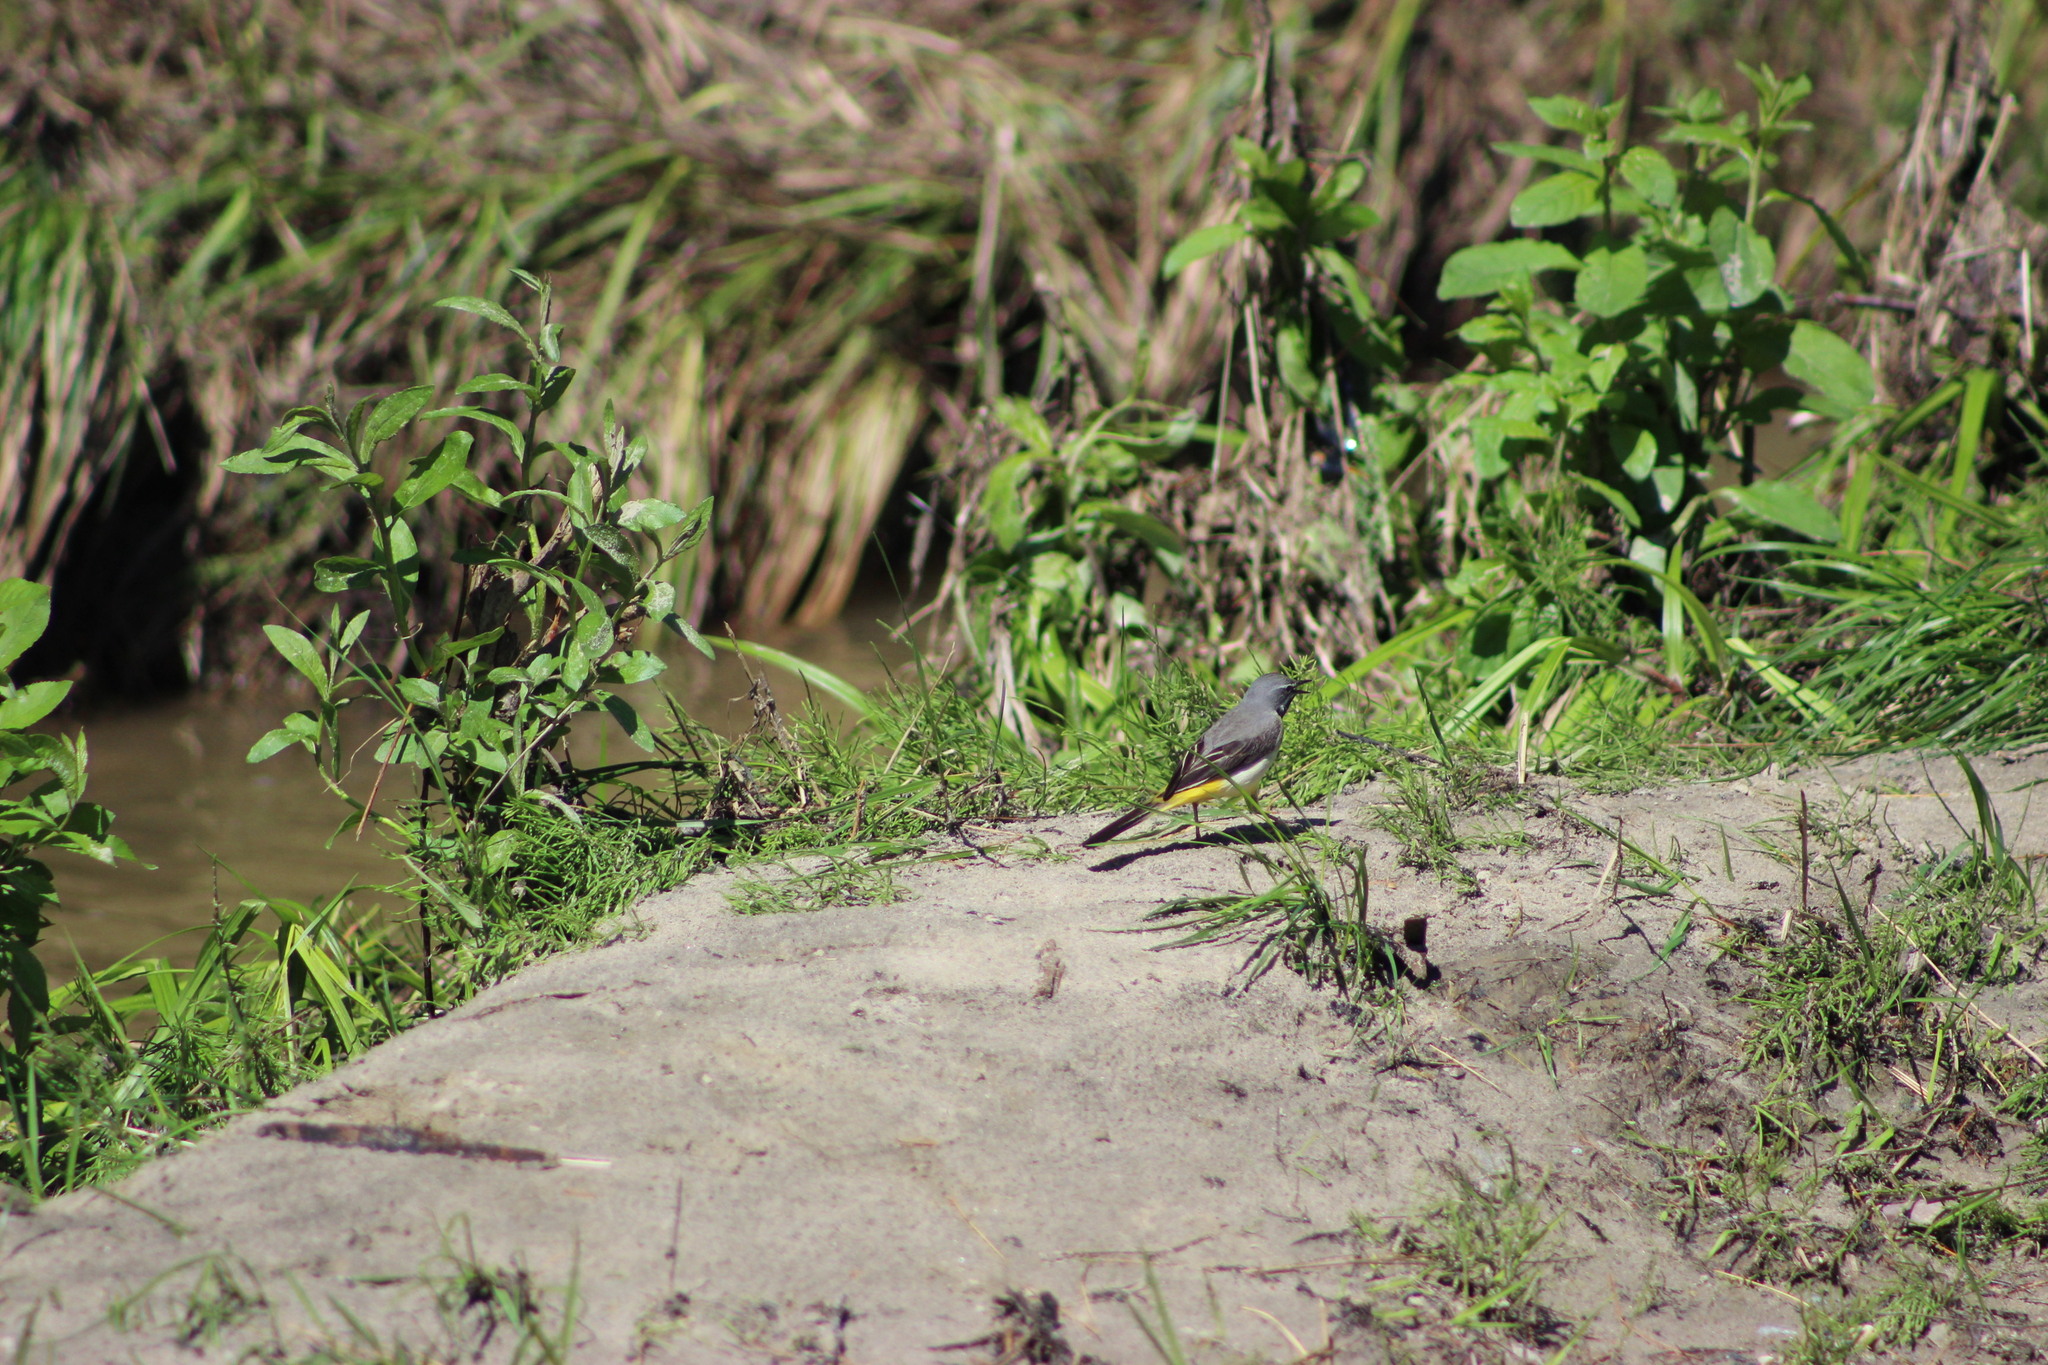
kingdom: Animalia
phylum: Chordata
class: Aves
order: Passeriformes
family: Motacillidae
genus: Motacilla
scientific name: Motacilla cinerea
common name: Grey wagtail
